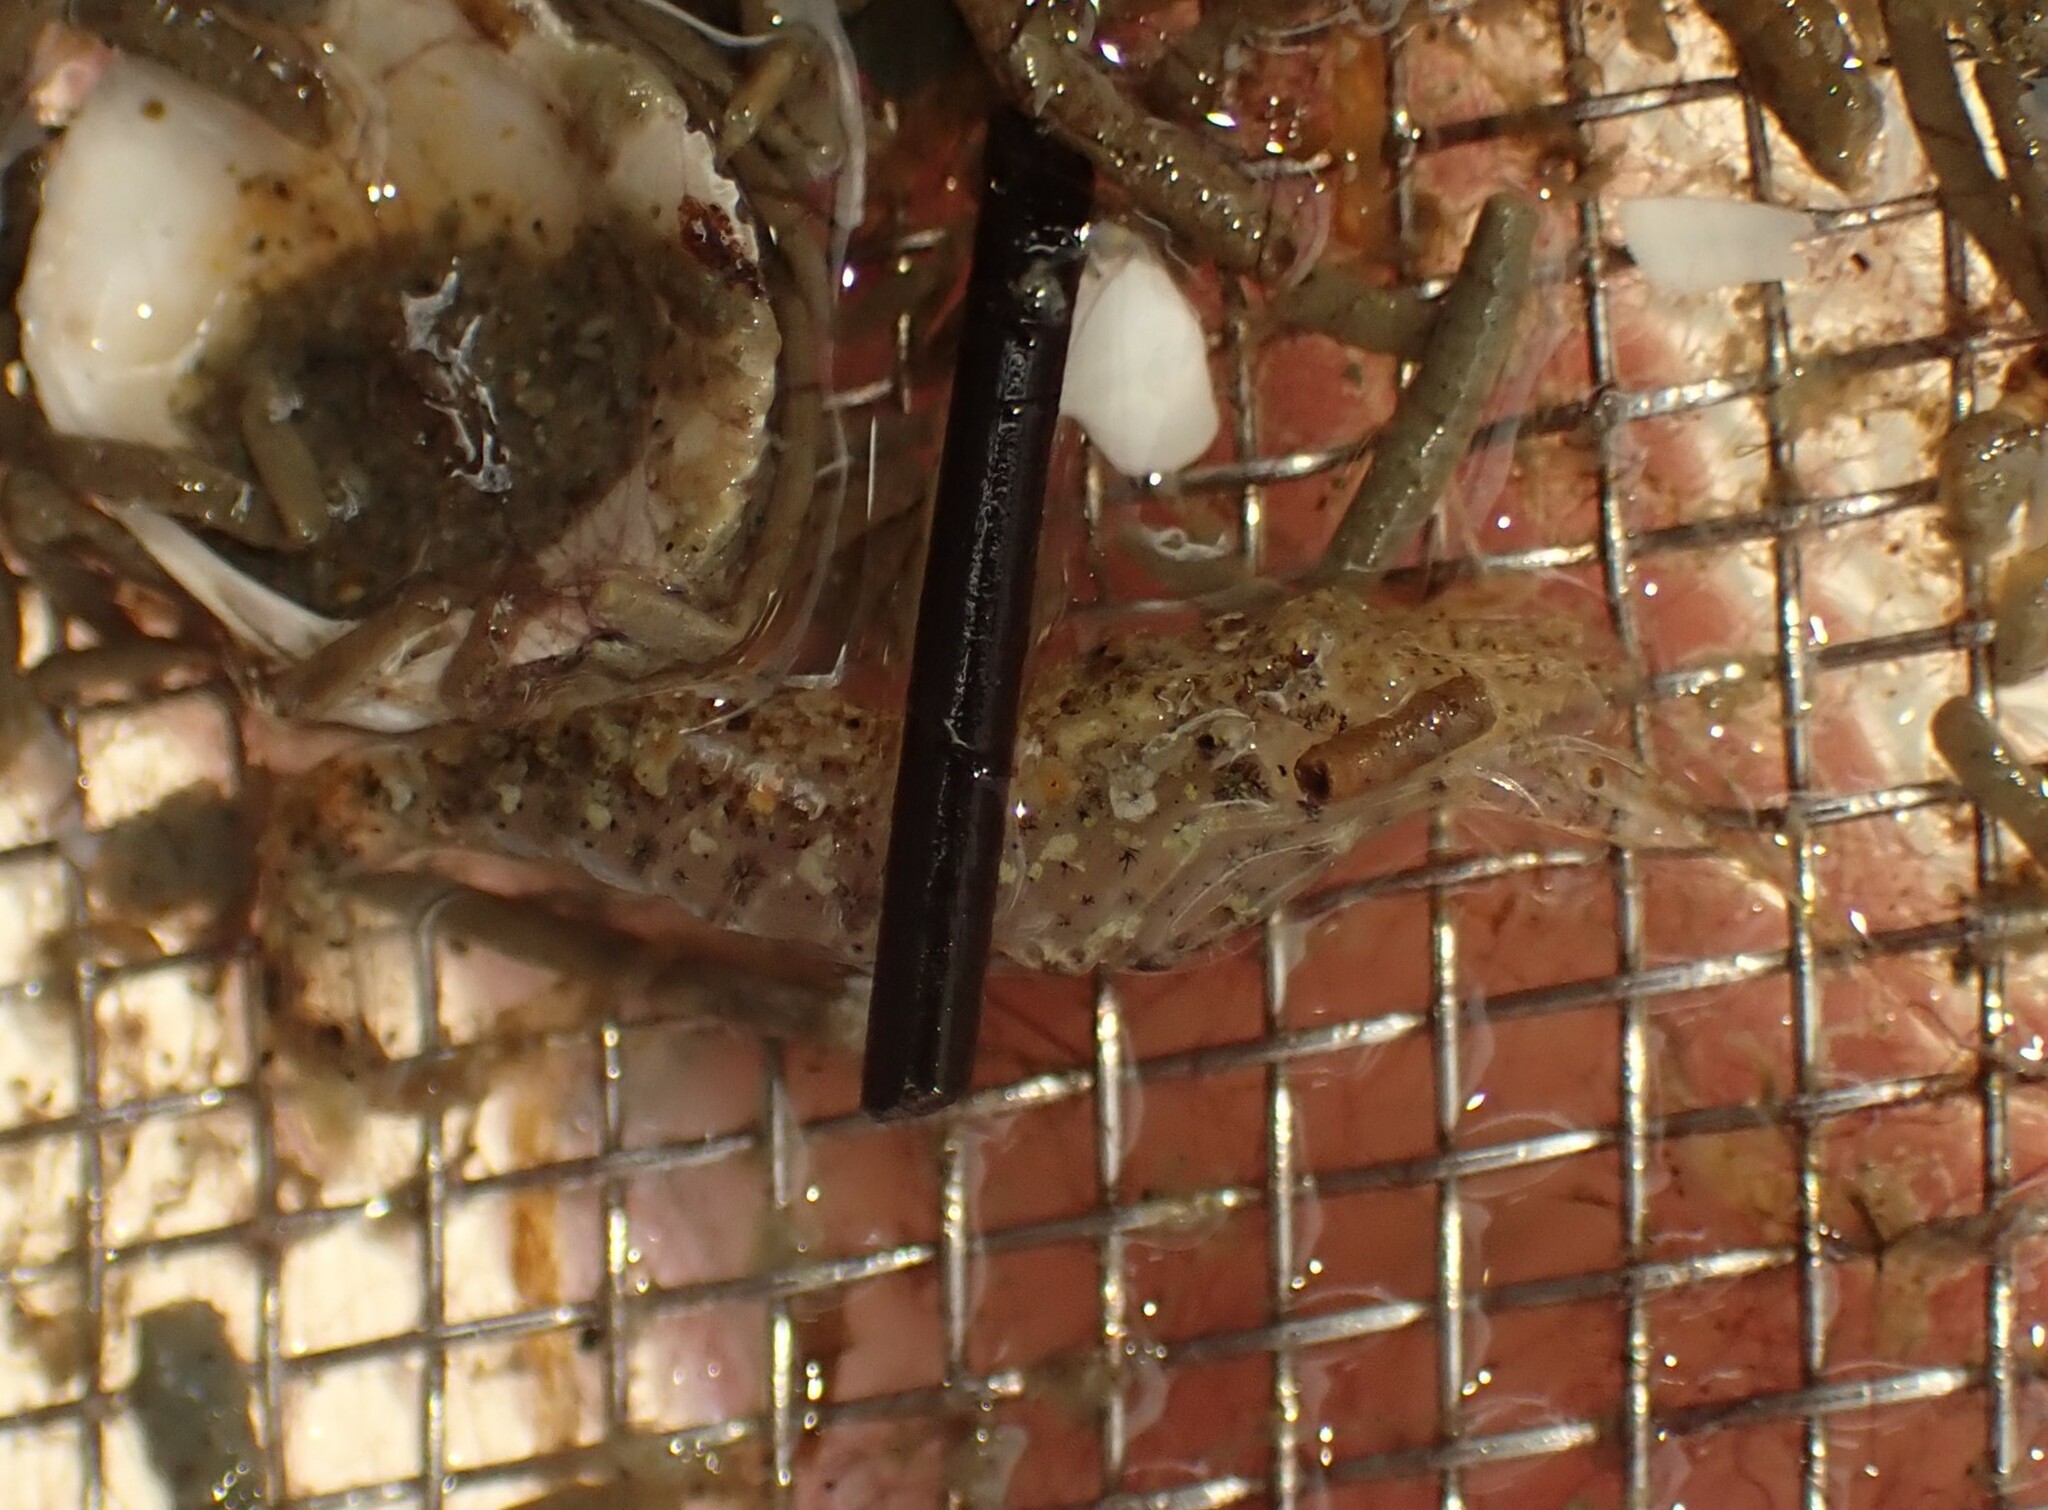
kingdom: Animalia
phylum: Arthropoda
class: Malacostraca
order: Decapoda
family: Crangonidae
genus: Philocheras
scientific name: Philocheras australis
